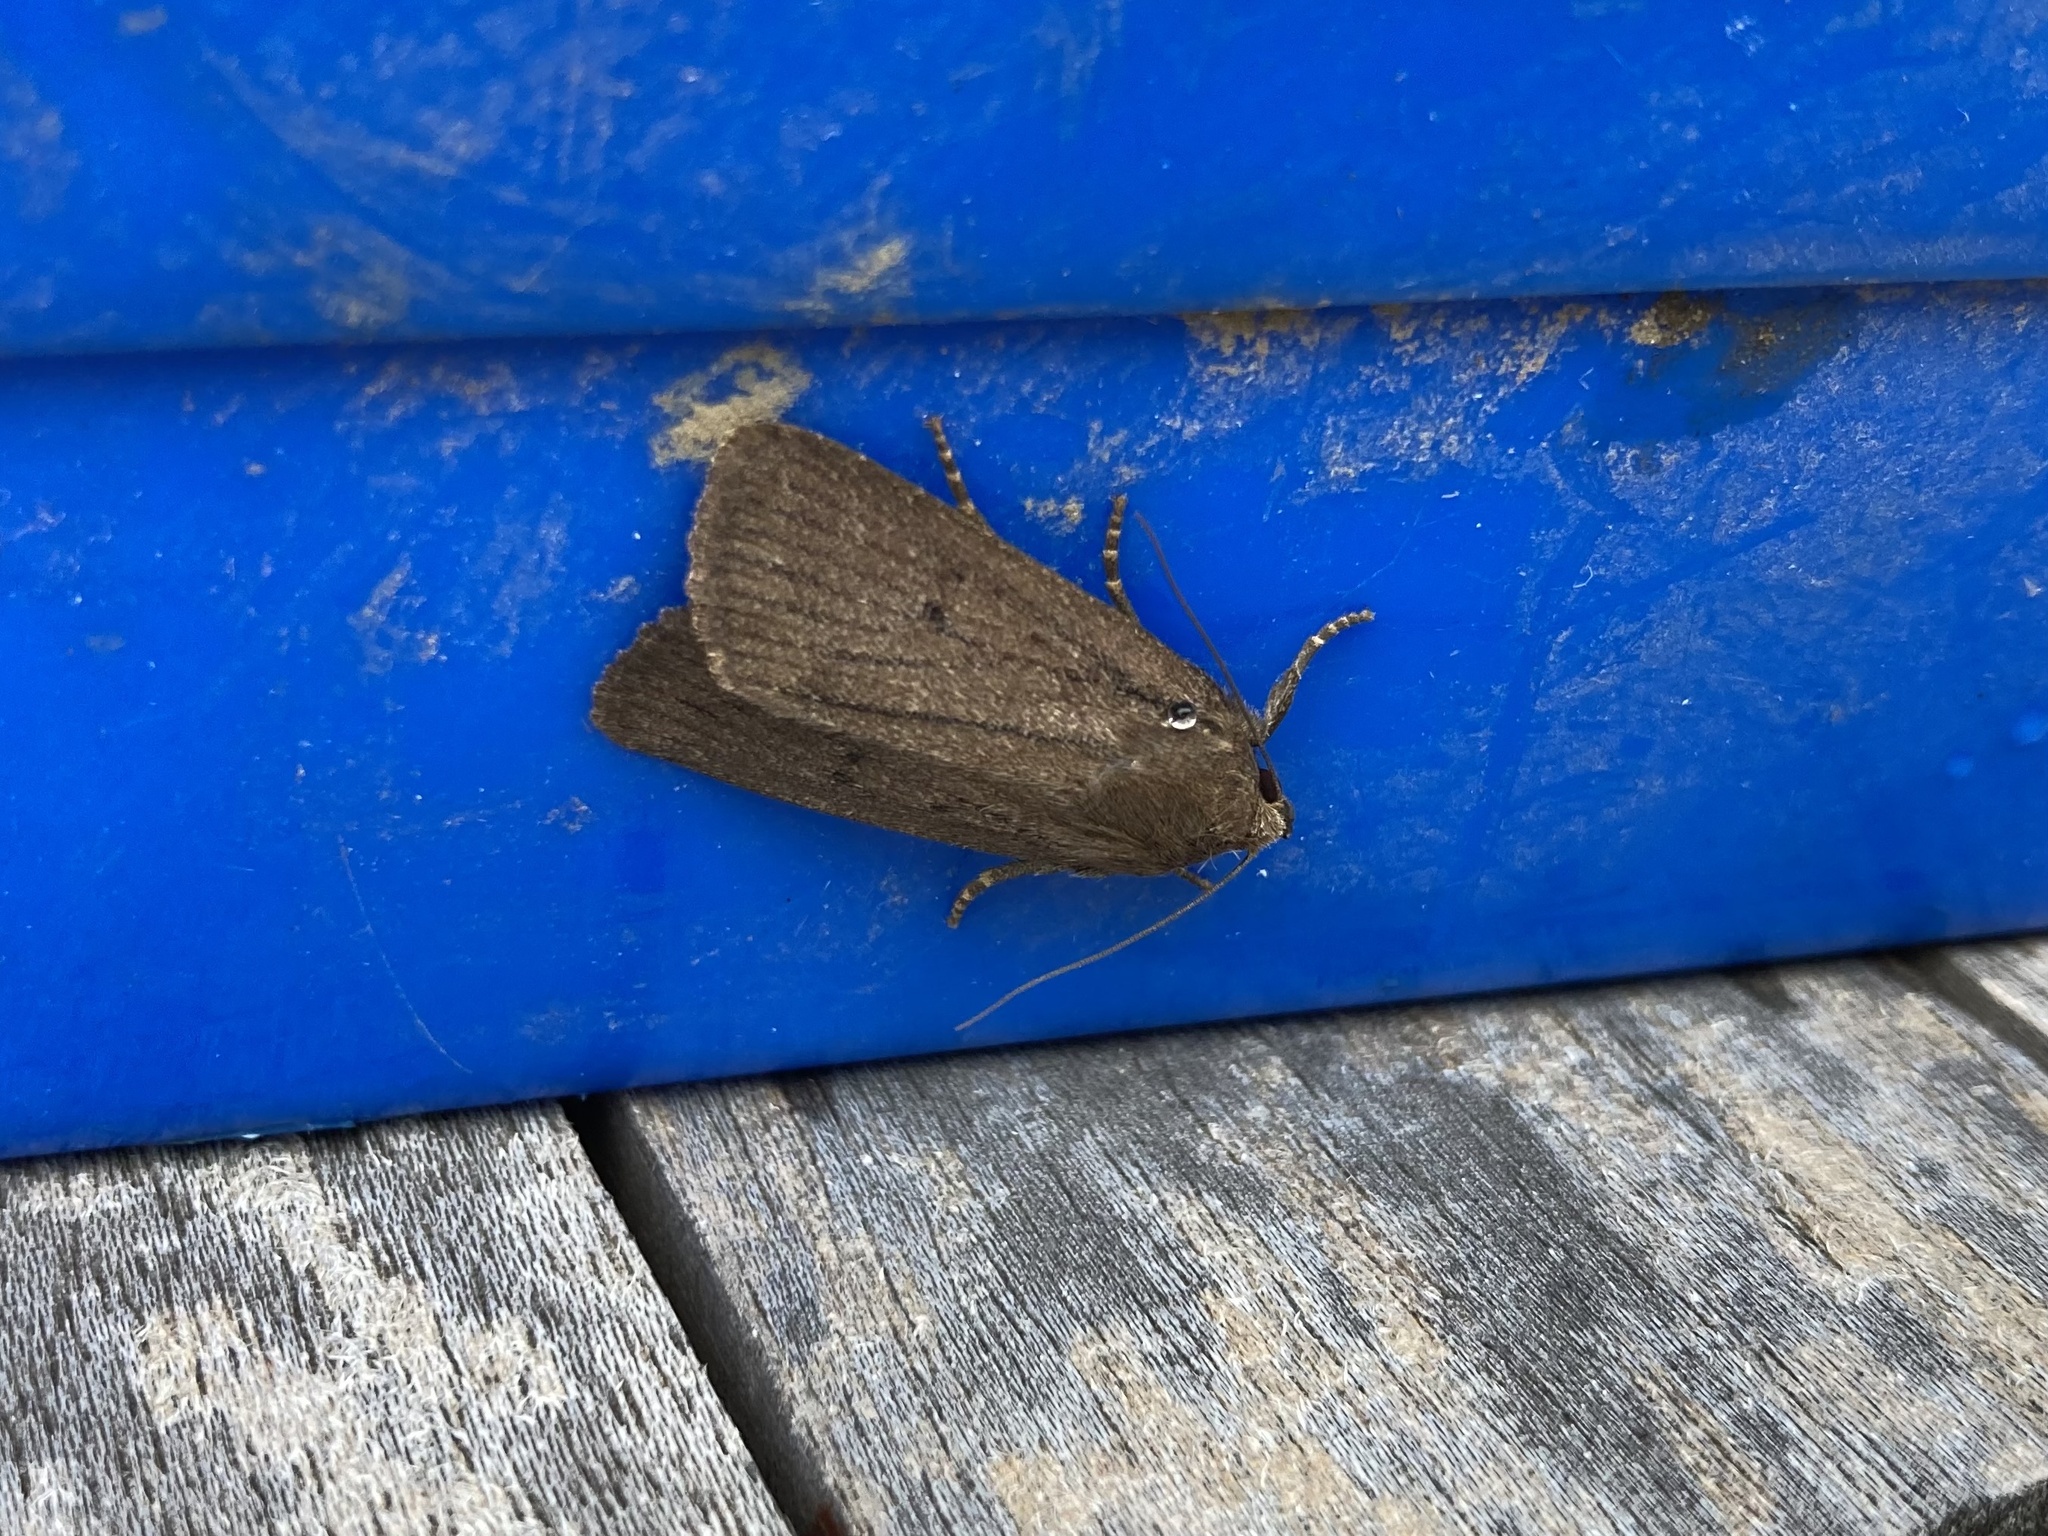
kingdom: Animalia
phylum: Arthropoda
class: Insecta
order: Lepidoptera
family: Noctuidae
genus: Amphipyra
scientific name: Amphipyra tragopoginis
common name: Mouse moth
